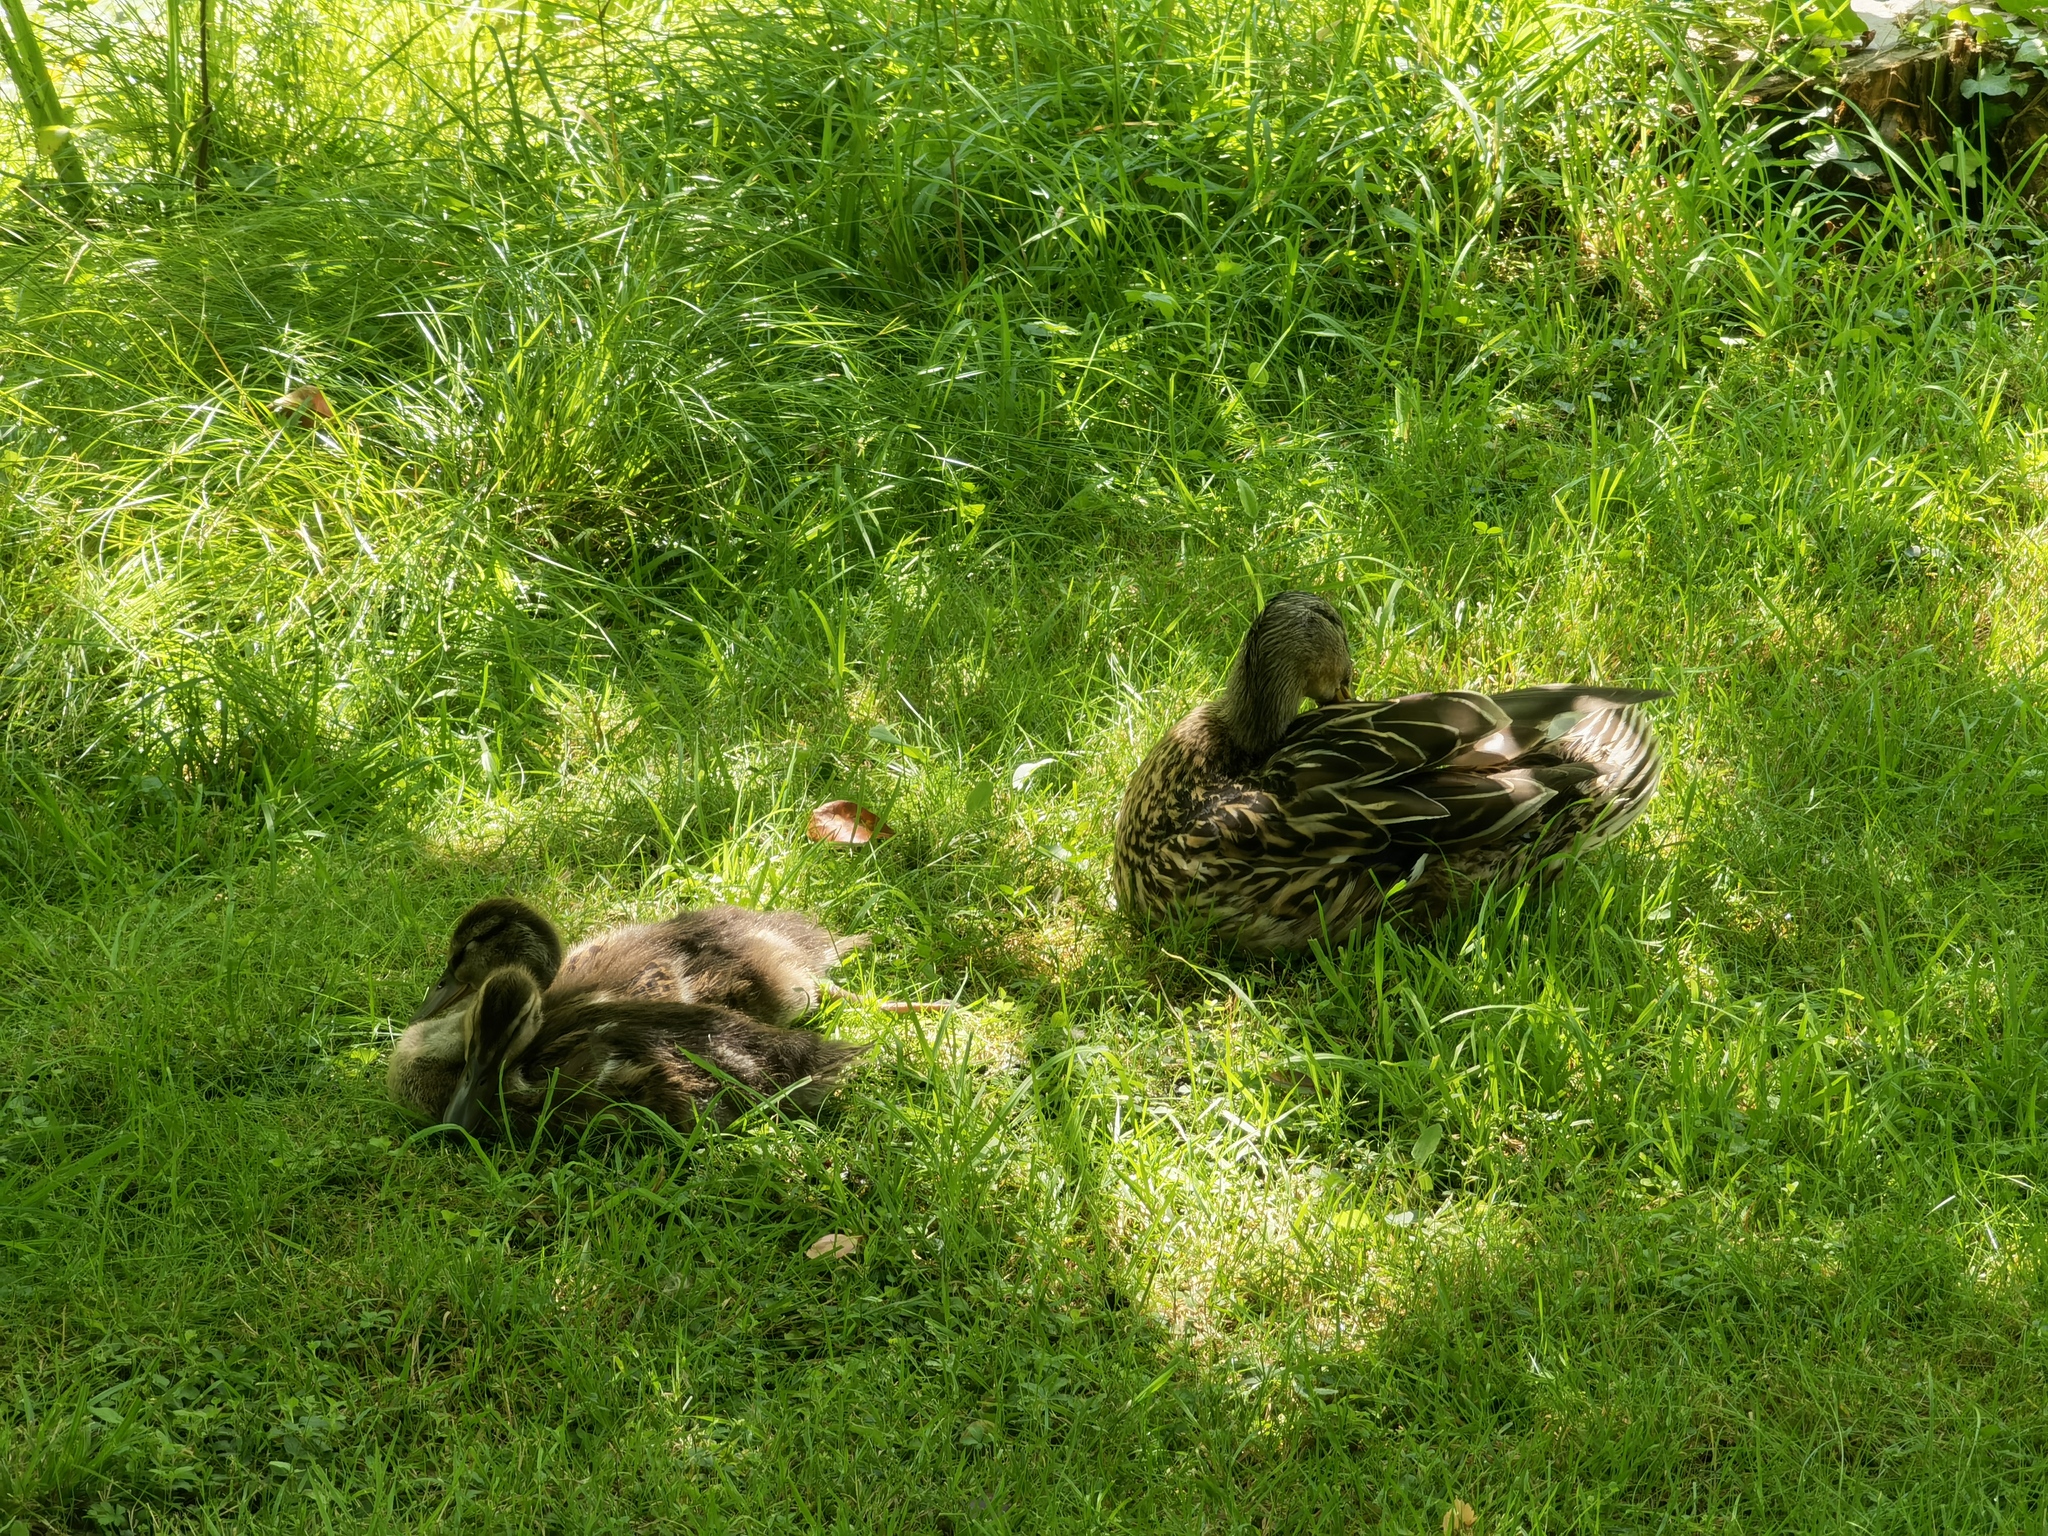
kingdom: Animalia
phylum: Chordata
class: Aves
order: Anseriformes
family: Anatidae
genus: Anas
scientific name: Anas platyrhynchos
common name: Mallard
